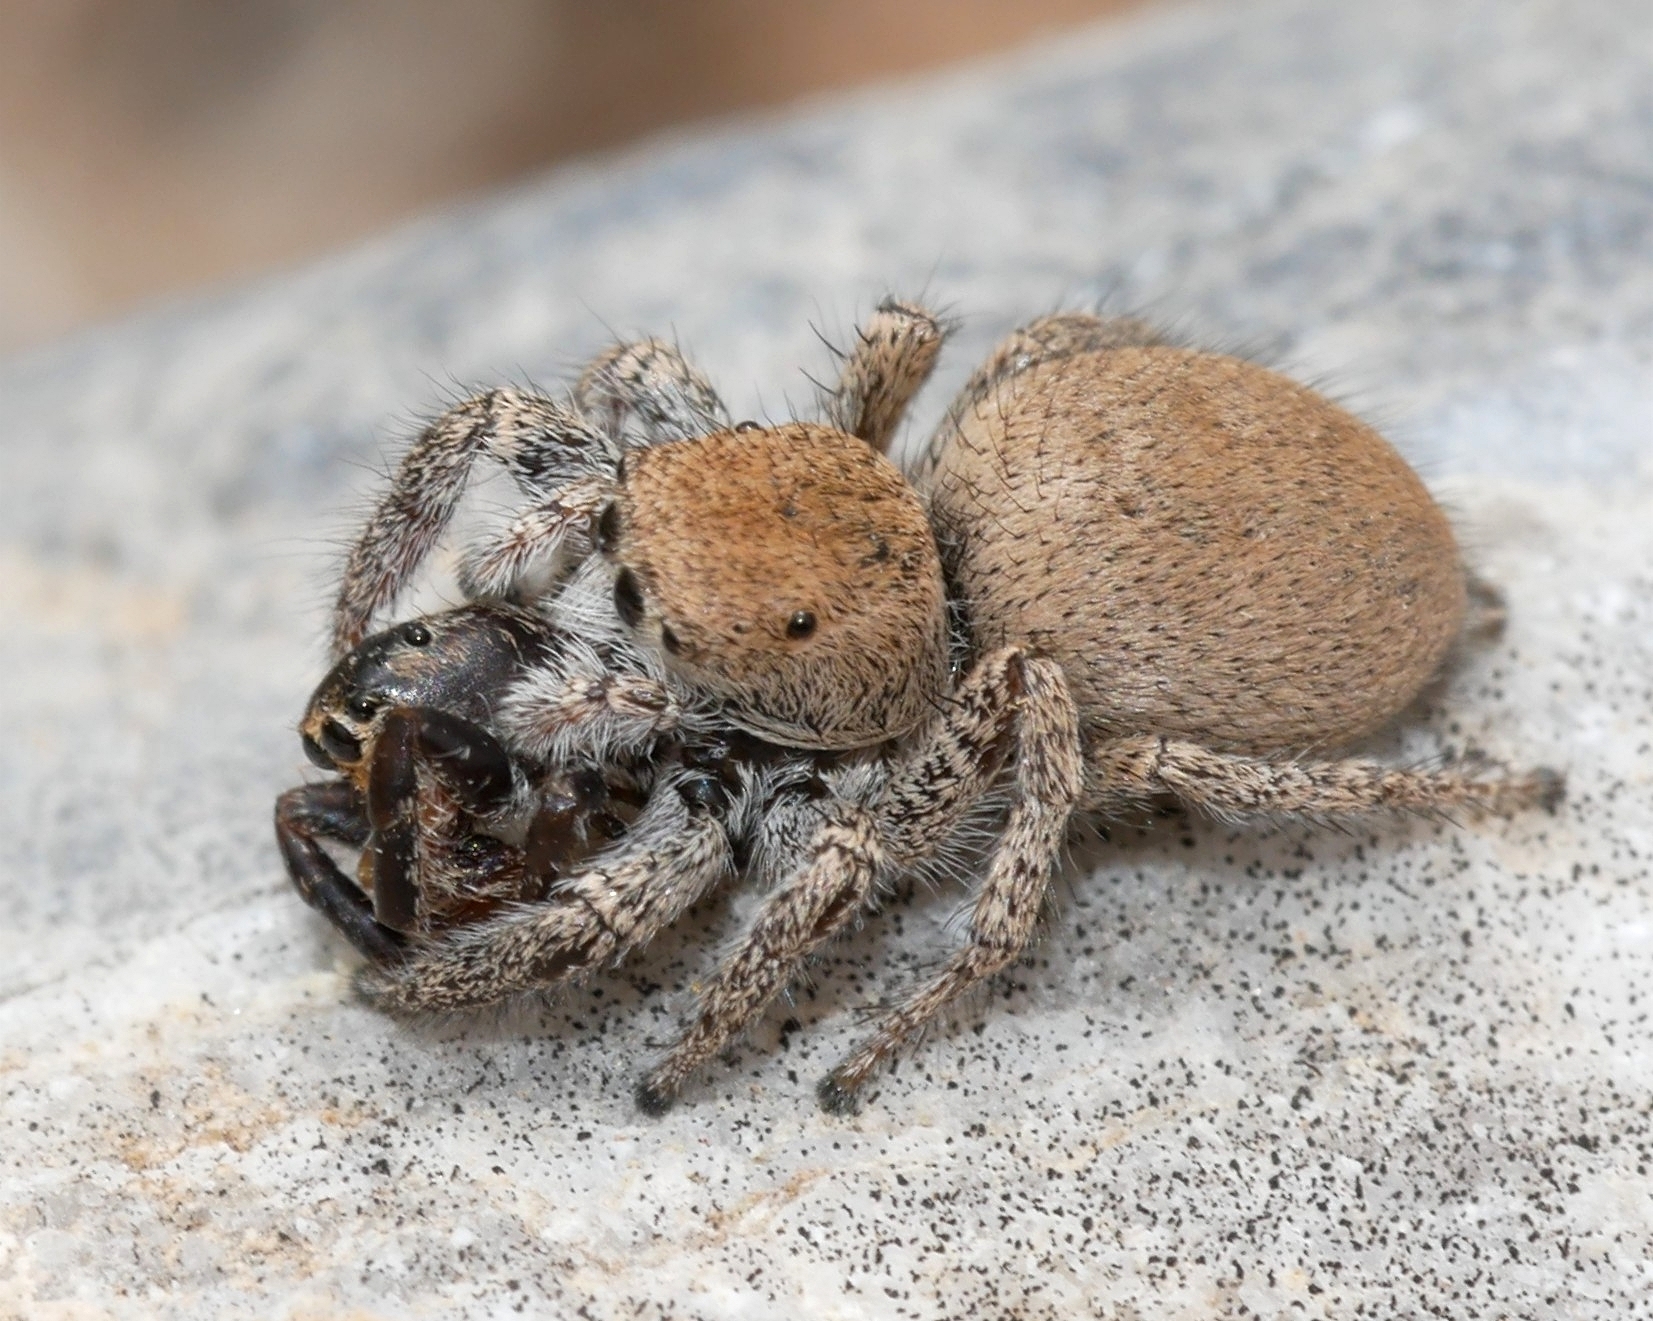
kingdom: Animalia
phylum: Arthropoda
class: Arachnida
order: Araneae
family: Salticidae
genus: Habronattus
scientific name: Habronattus clypeatus
